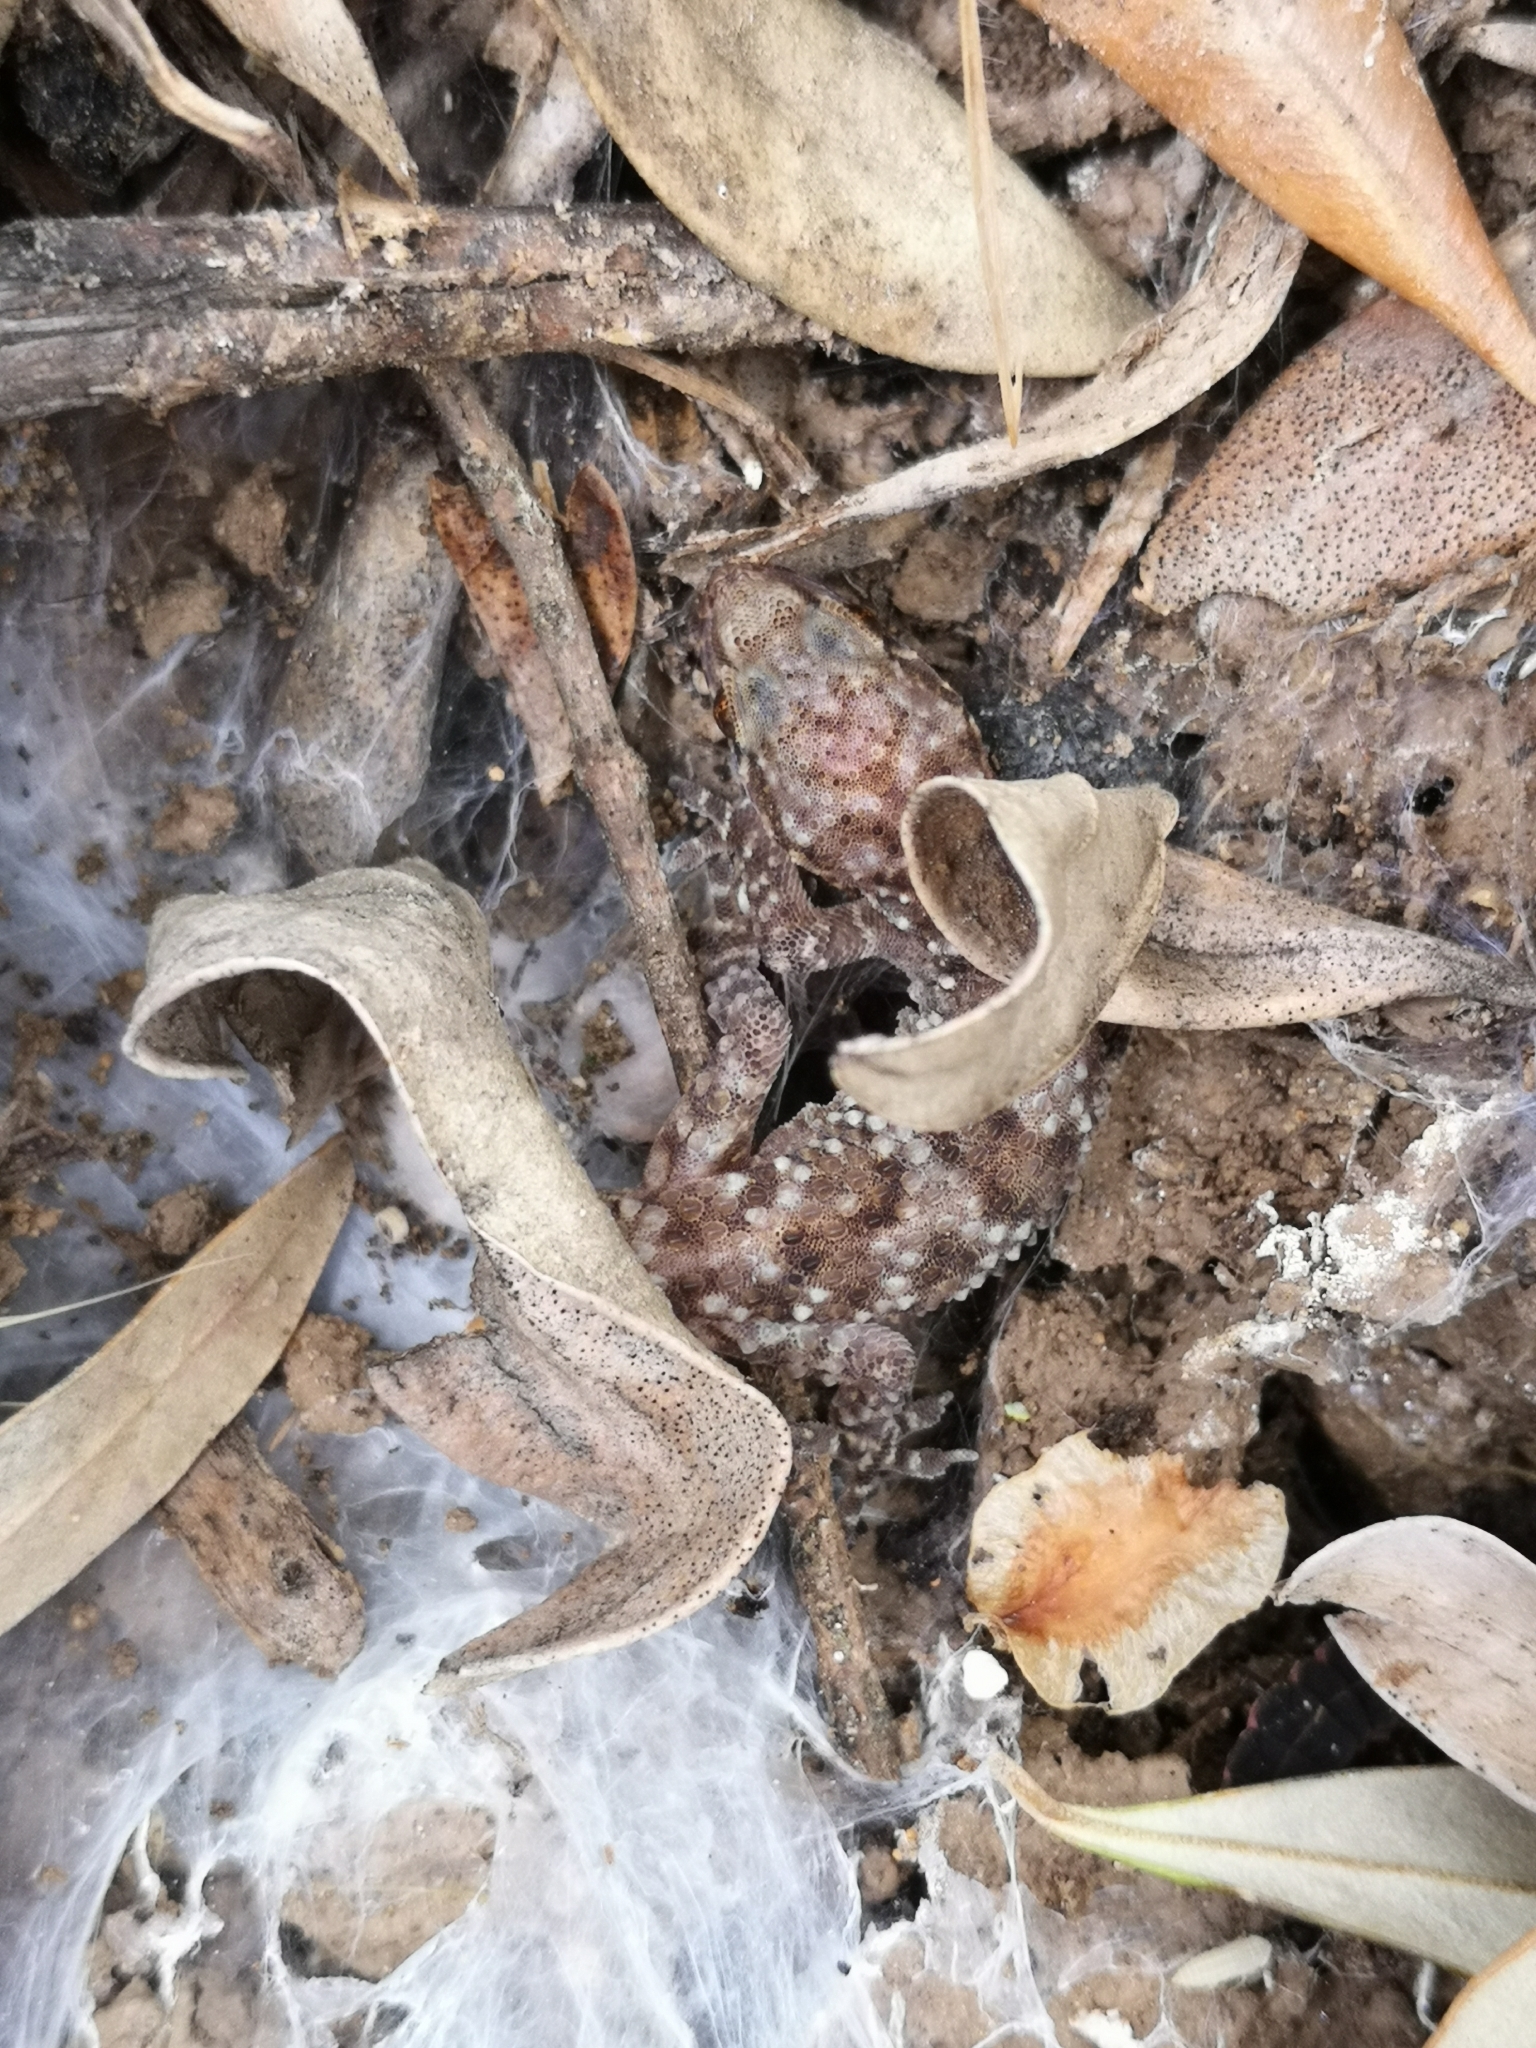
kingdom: Animalia
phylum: Chordata
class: Squamata
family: Gekkonidae
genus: Hemidactylus
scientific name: Hemidactylus turcicus
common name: Turkish gecko
